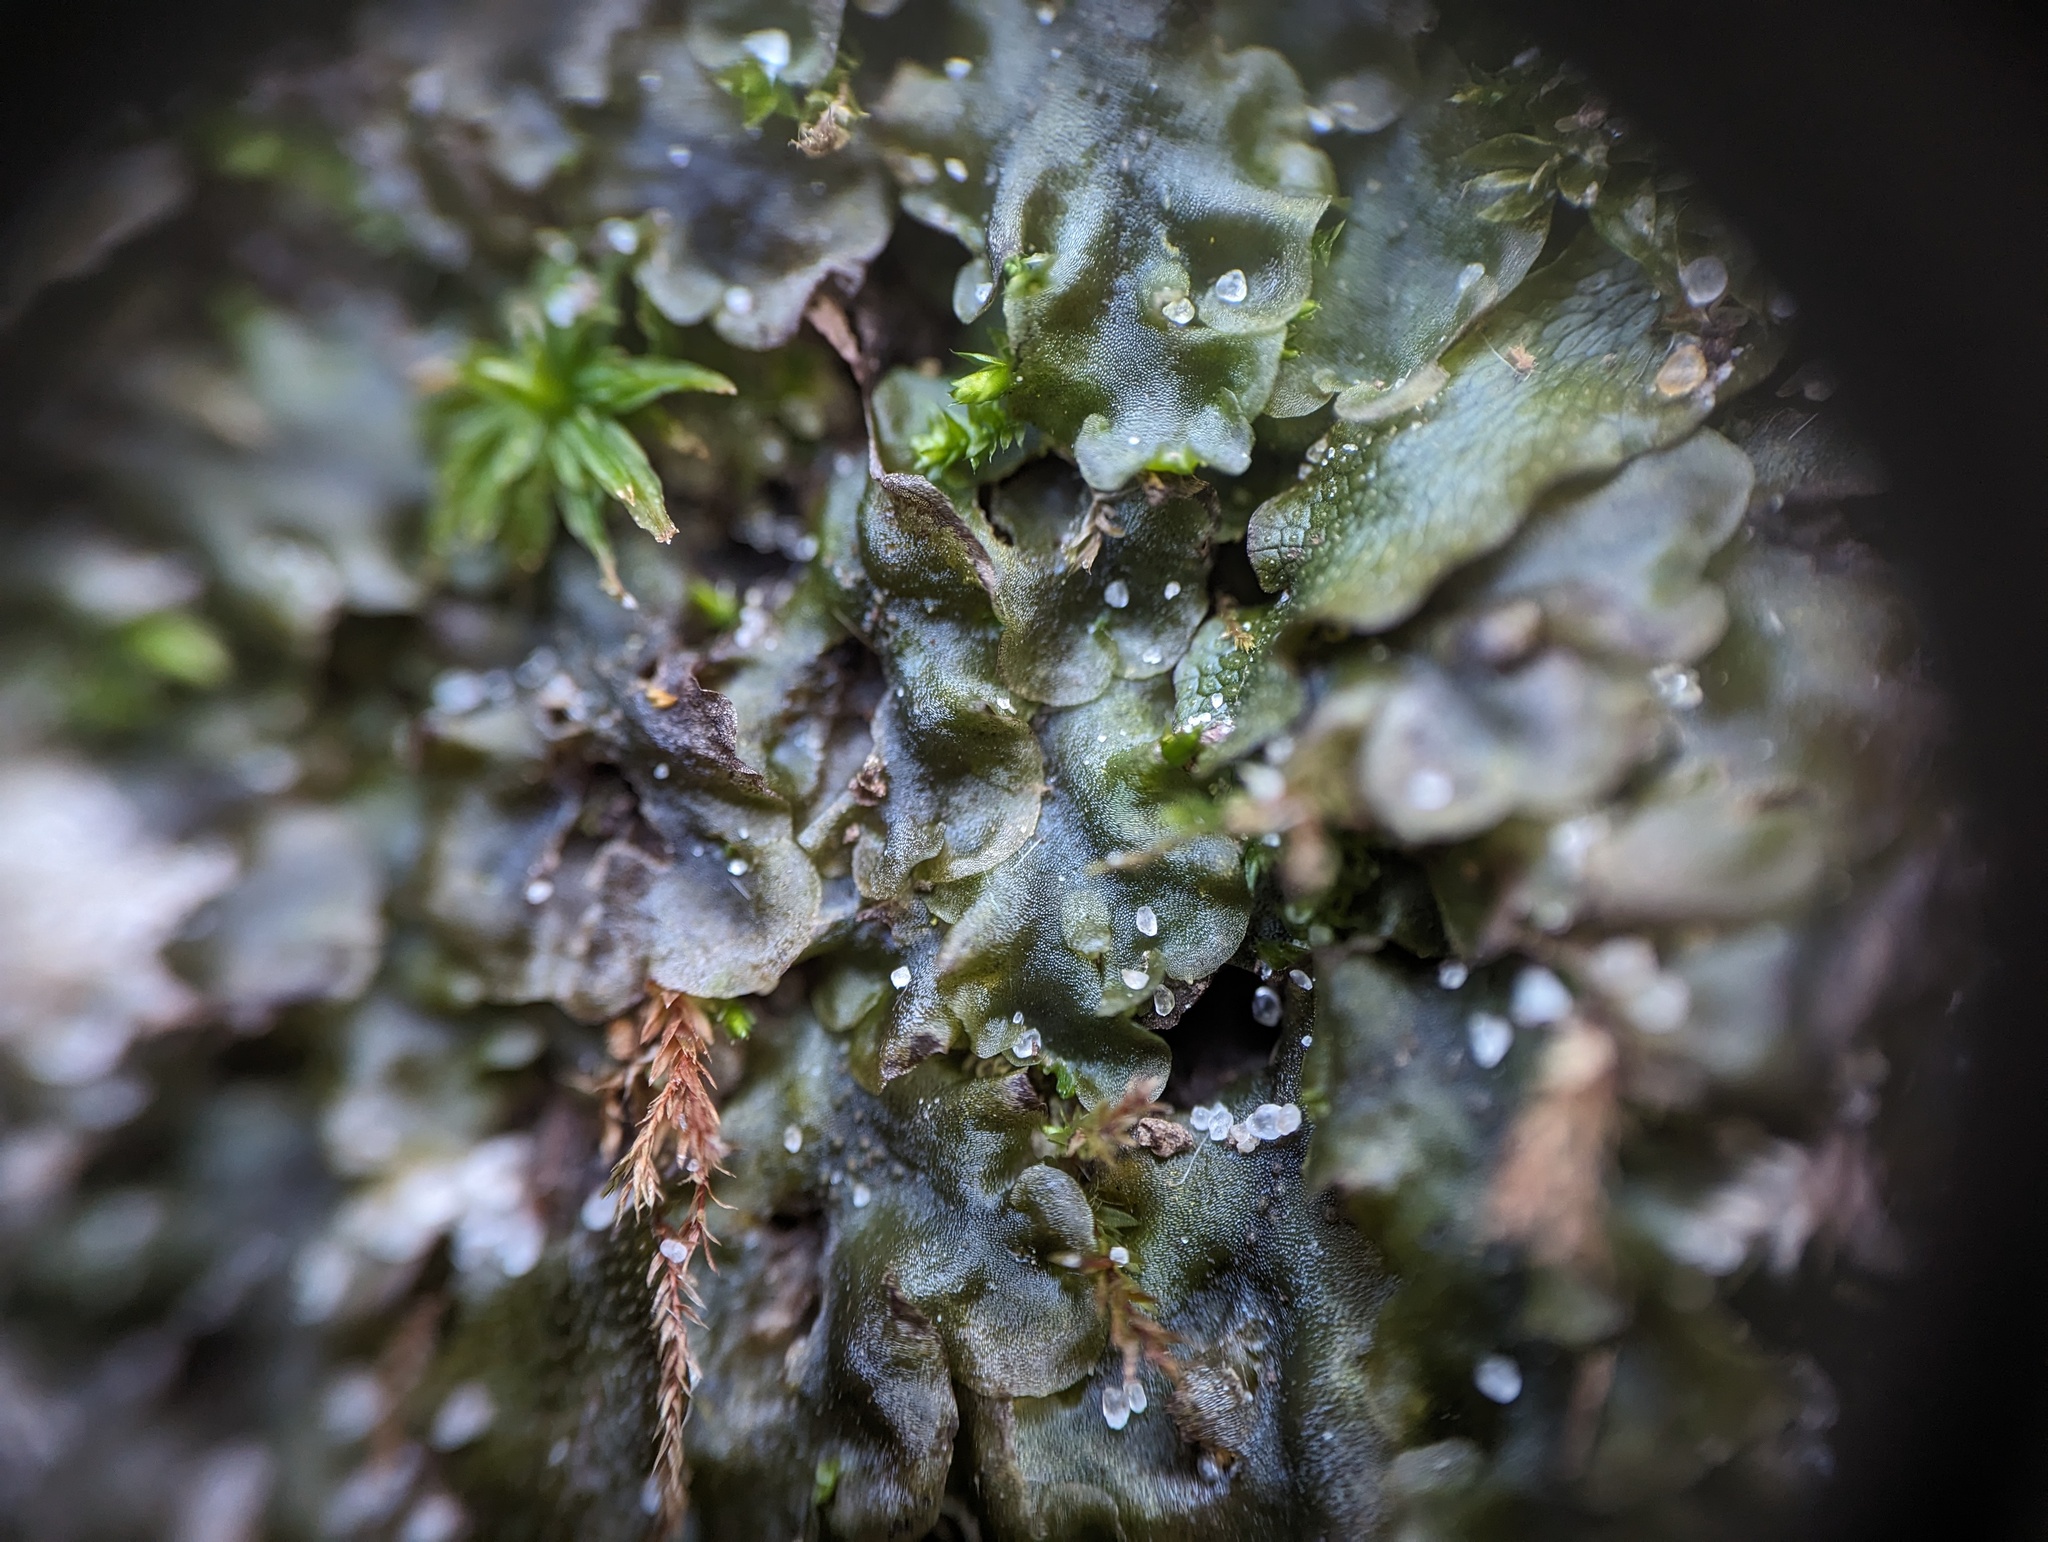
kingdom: Plantae
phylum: Marchantiophyta
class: Jungermanniopsida
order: Pelliales
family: Pelliaceae
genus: Pellia
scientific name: Pellia epiphylla
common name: Common pellia
